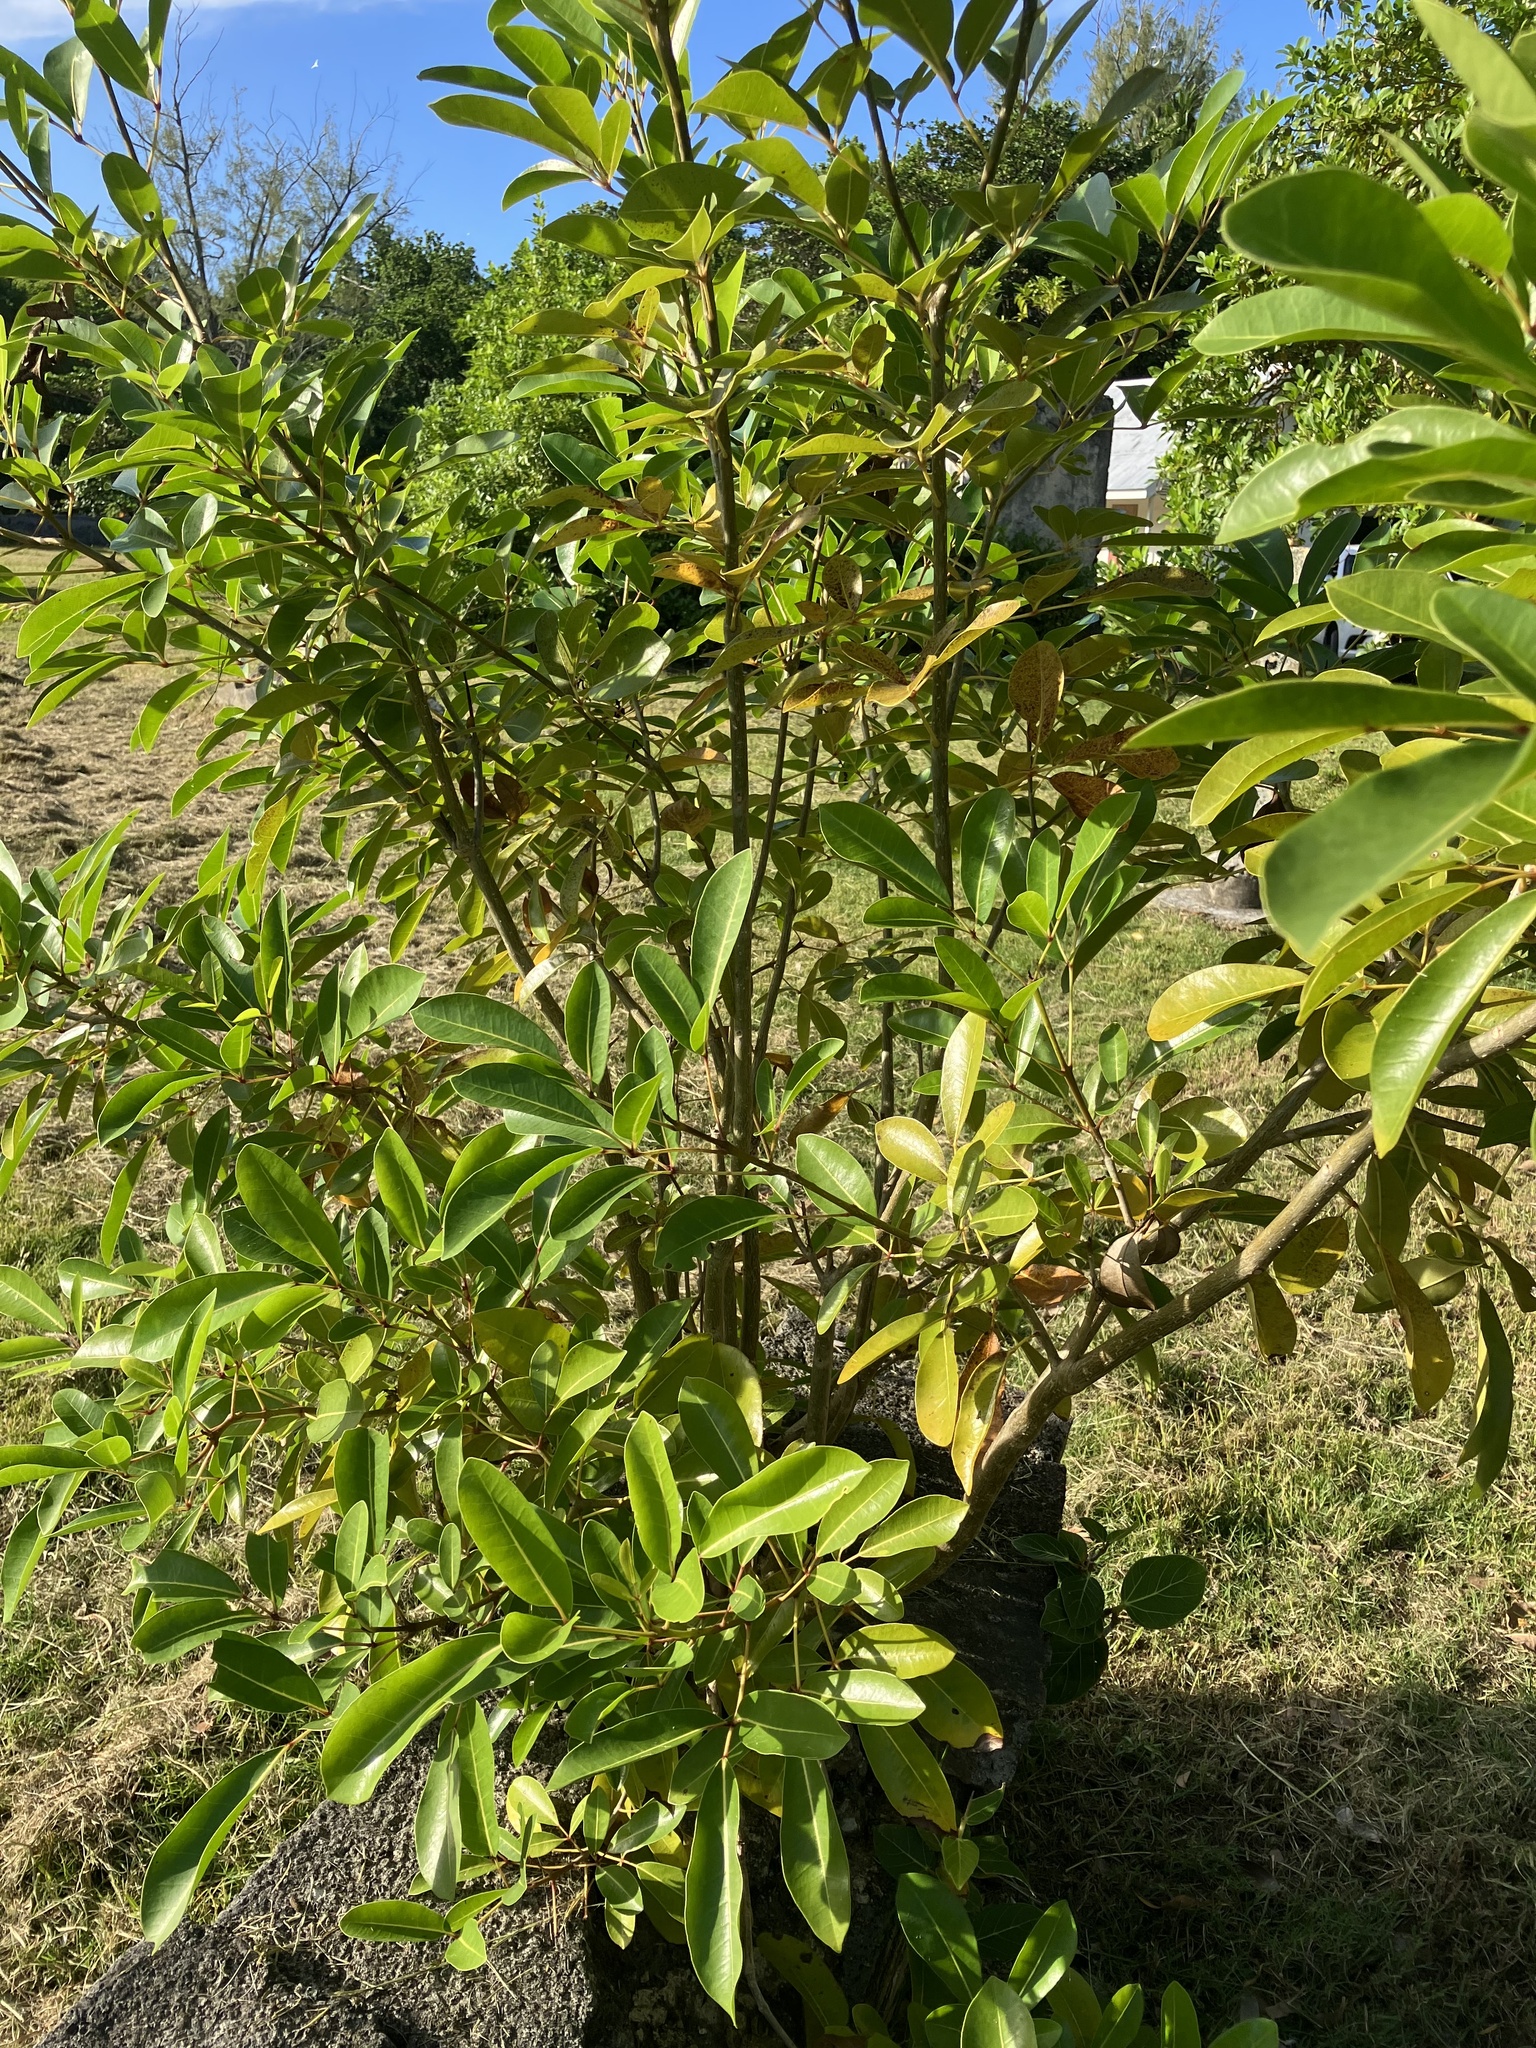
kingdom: Plantae
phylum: Tracheophyta
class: Magnoliopsida
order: Lamiales
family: Bignoniaceae
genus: Tabebuia
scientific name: Tabebuia heterophylla
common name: White cedar
